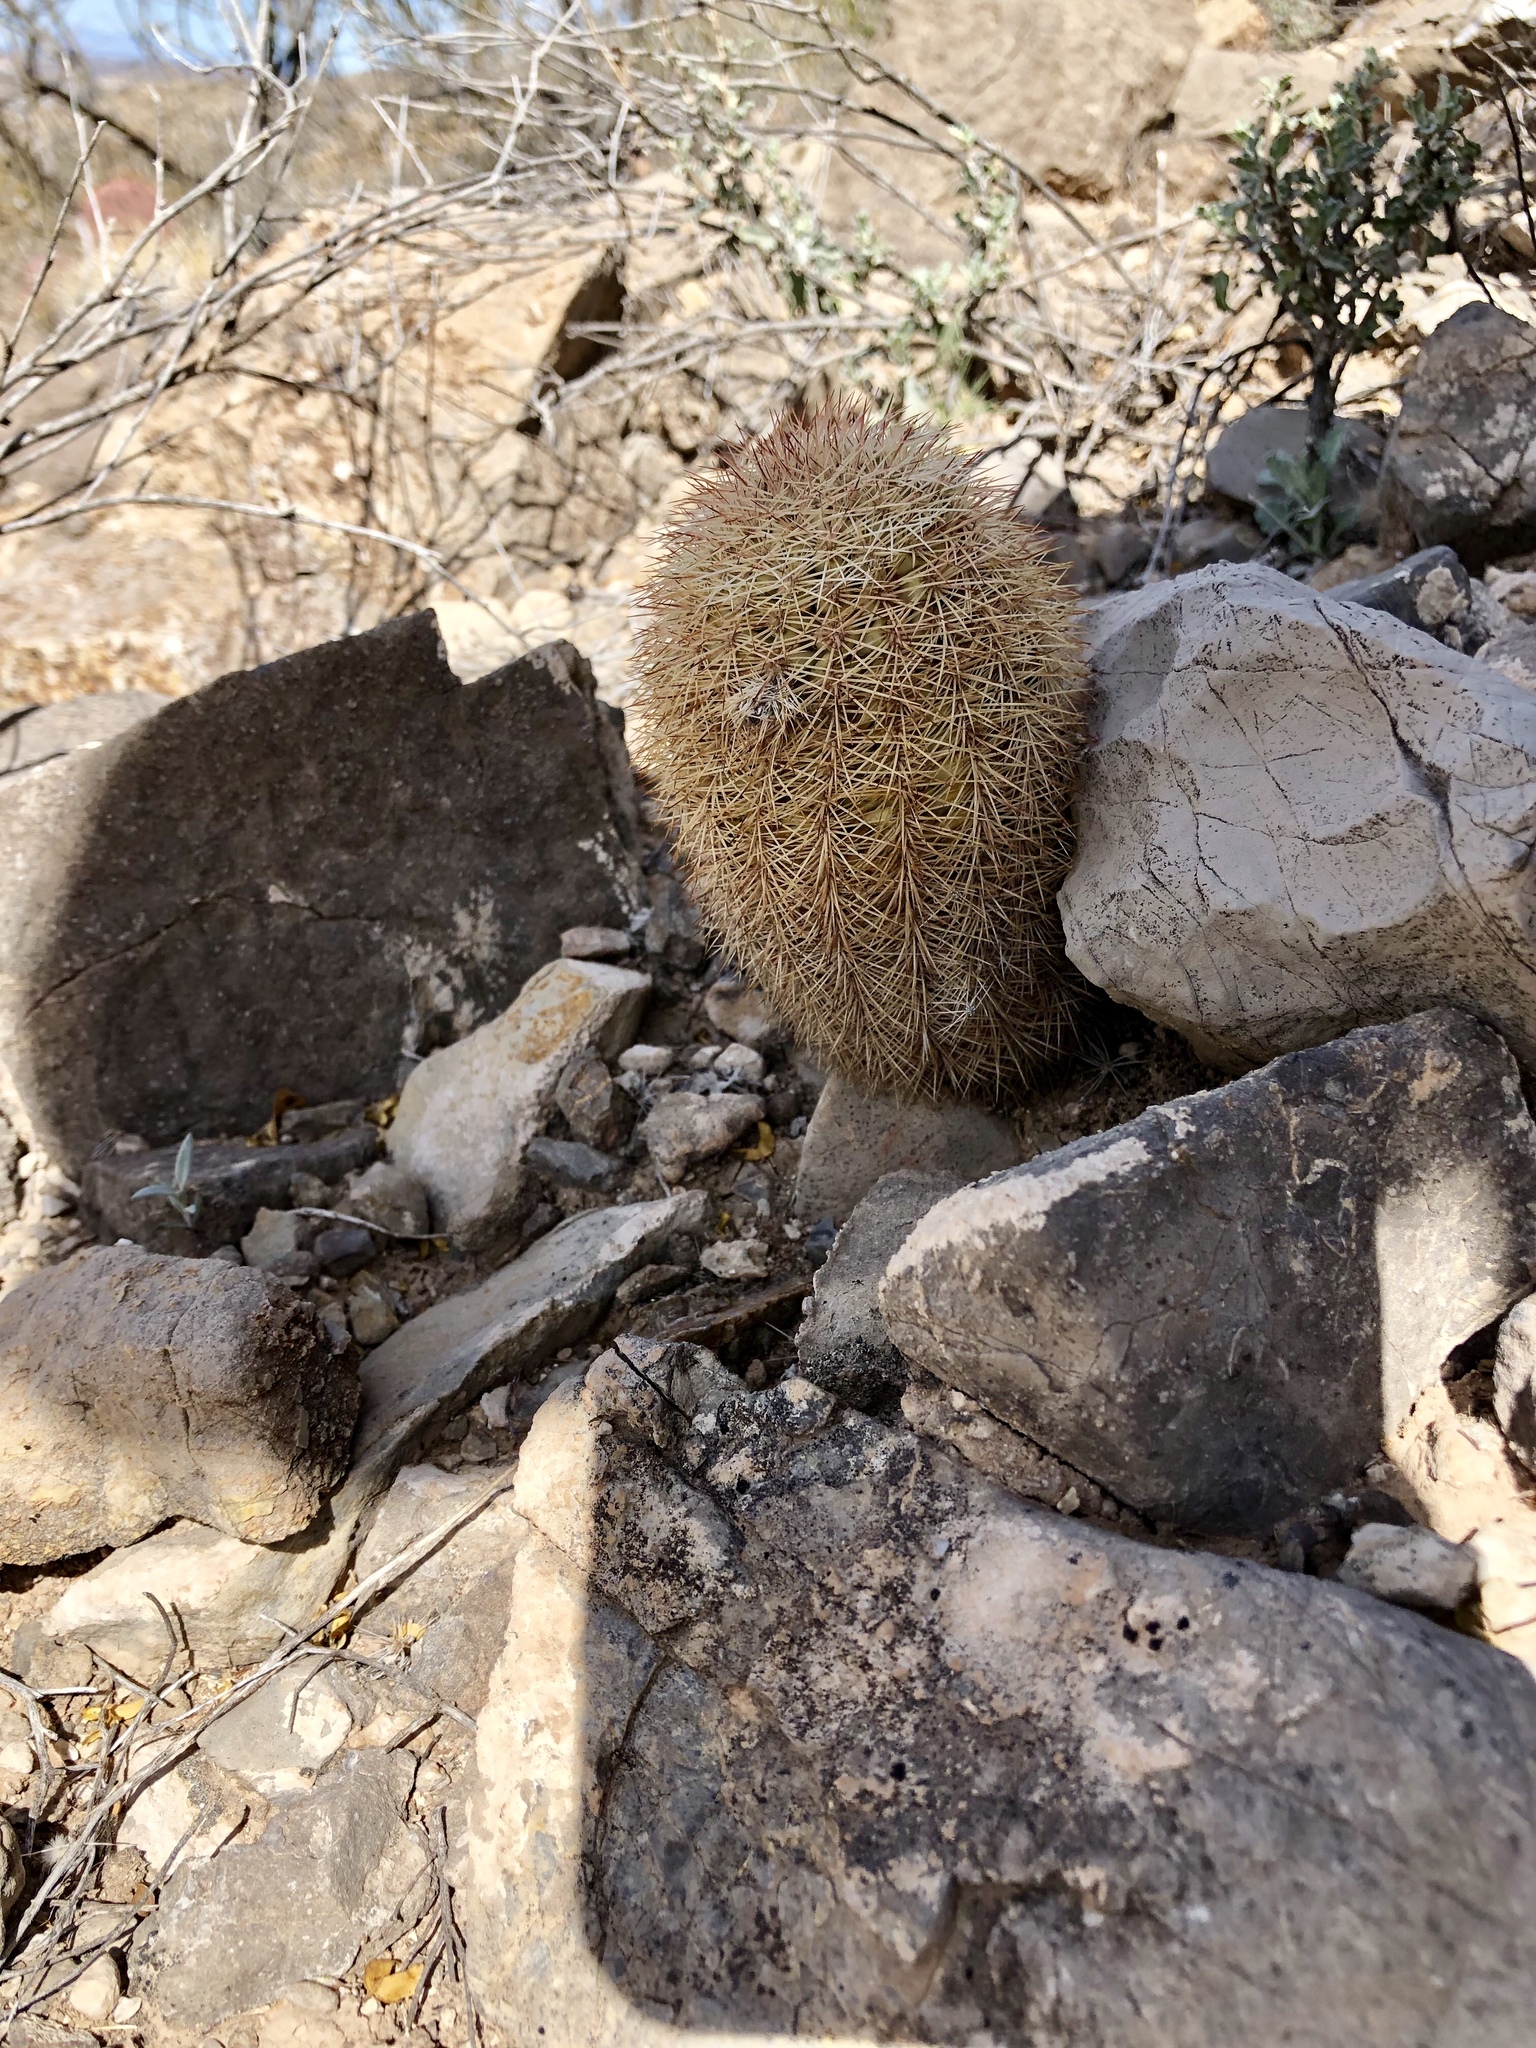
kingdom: Plantae
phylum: Tracheophyta
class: Magnoliopsida
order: Caryophyllales
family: Cactaceae
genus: Echinocereus
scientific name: Echinocereus dasyacanthus
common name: Spiny hedgehog cactus
